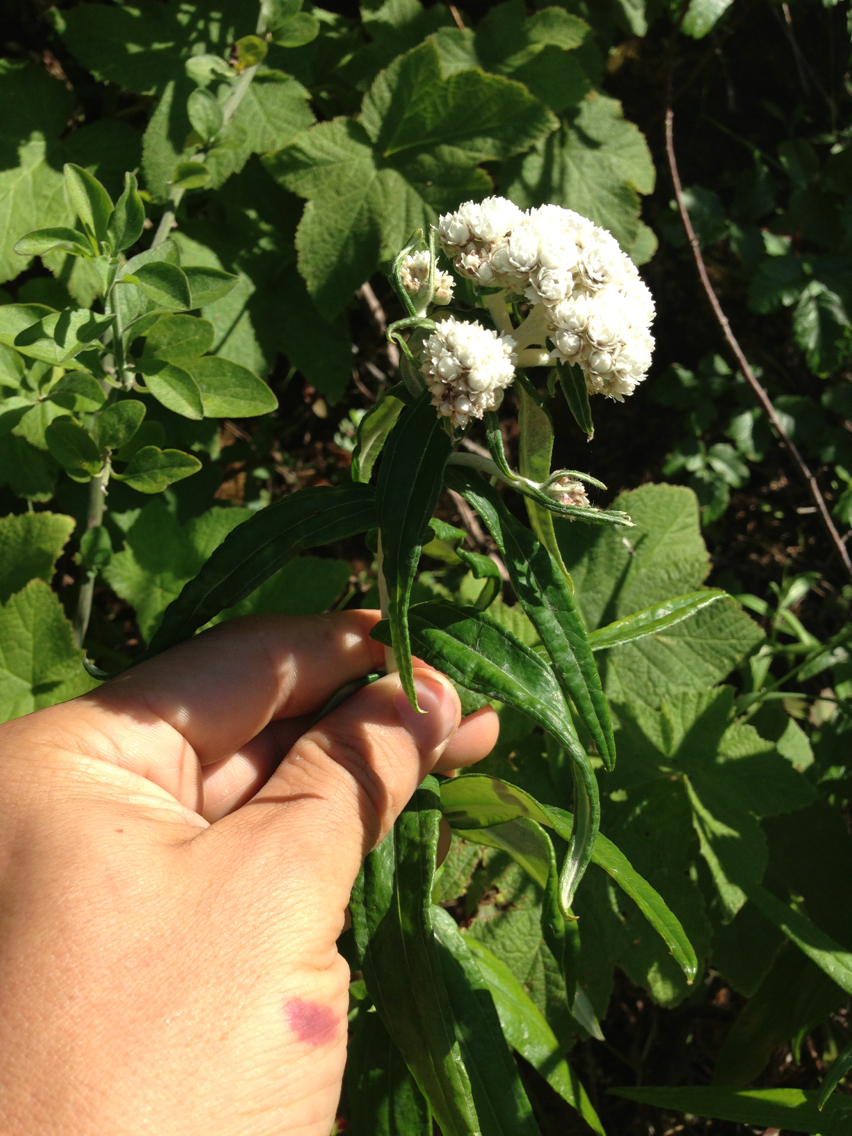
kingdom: Plantae
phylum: Tracheophyta
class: Magnoliopsida
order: Asterales
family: Asteraceae
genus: Anaphalis
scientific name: Anaphalis margaritacea
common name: Pearly everlasting
